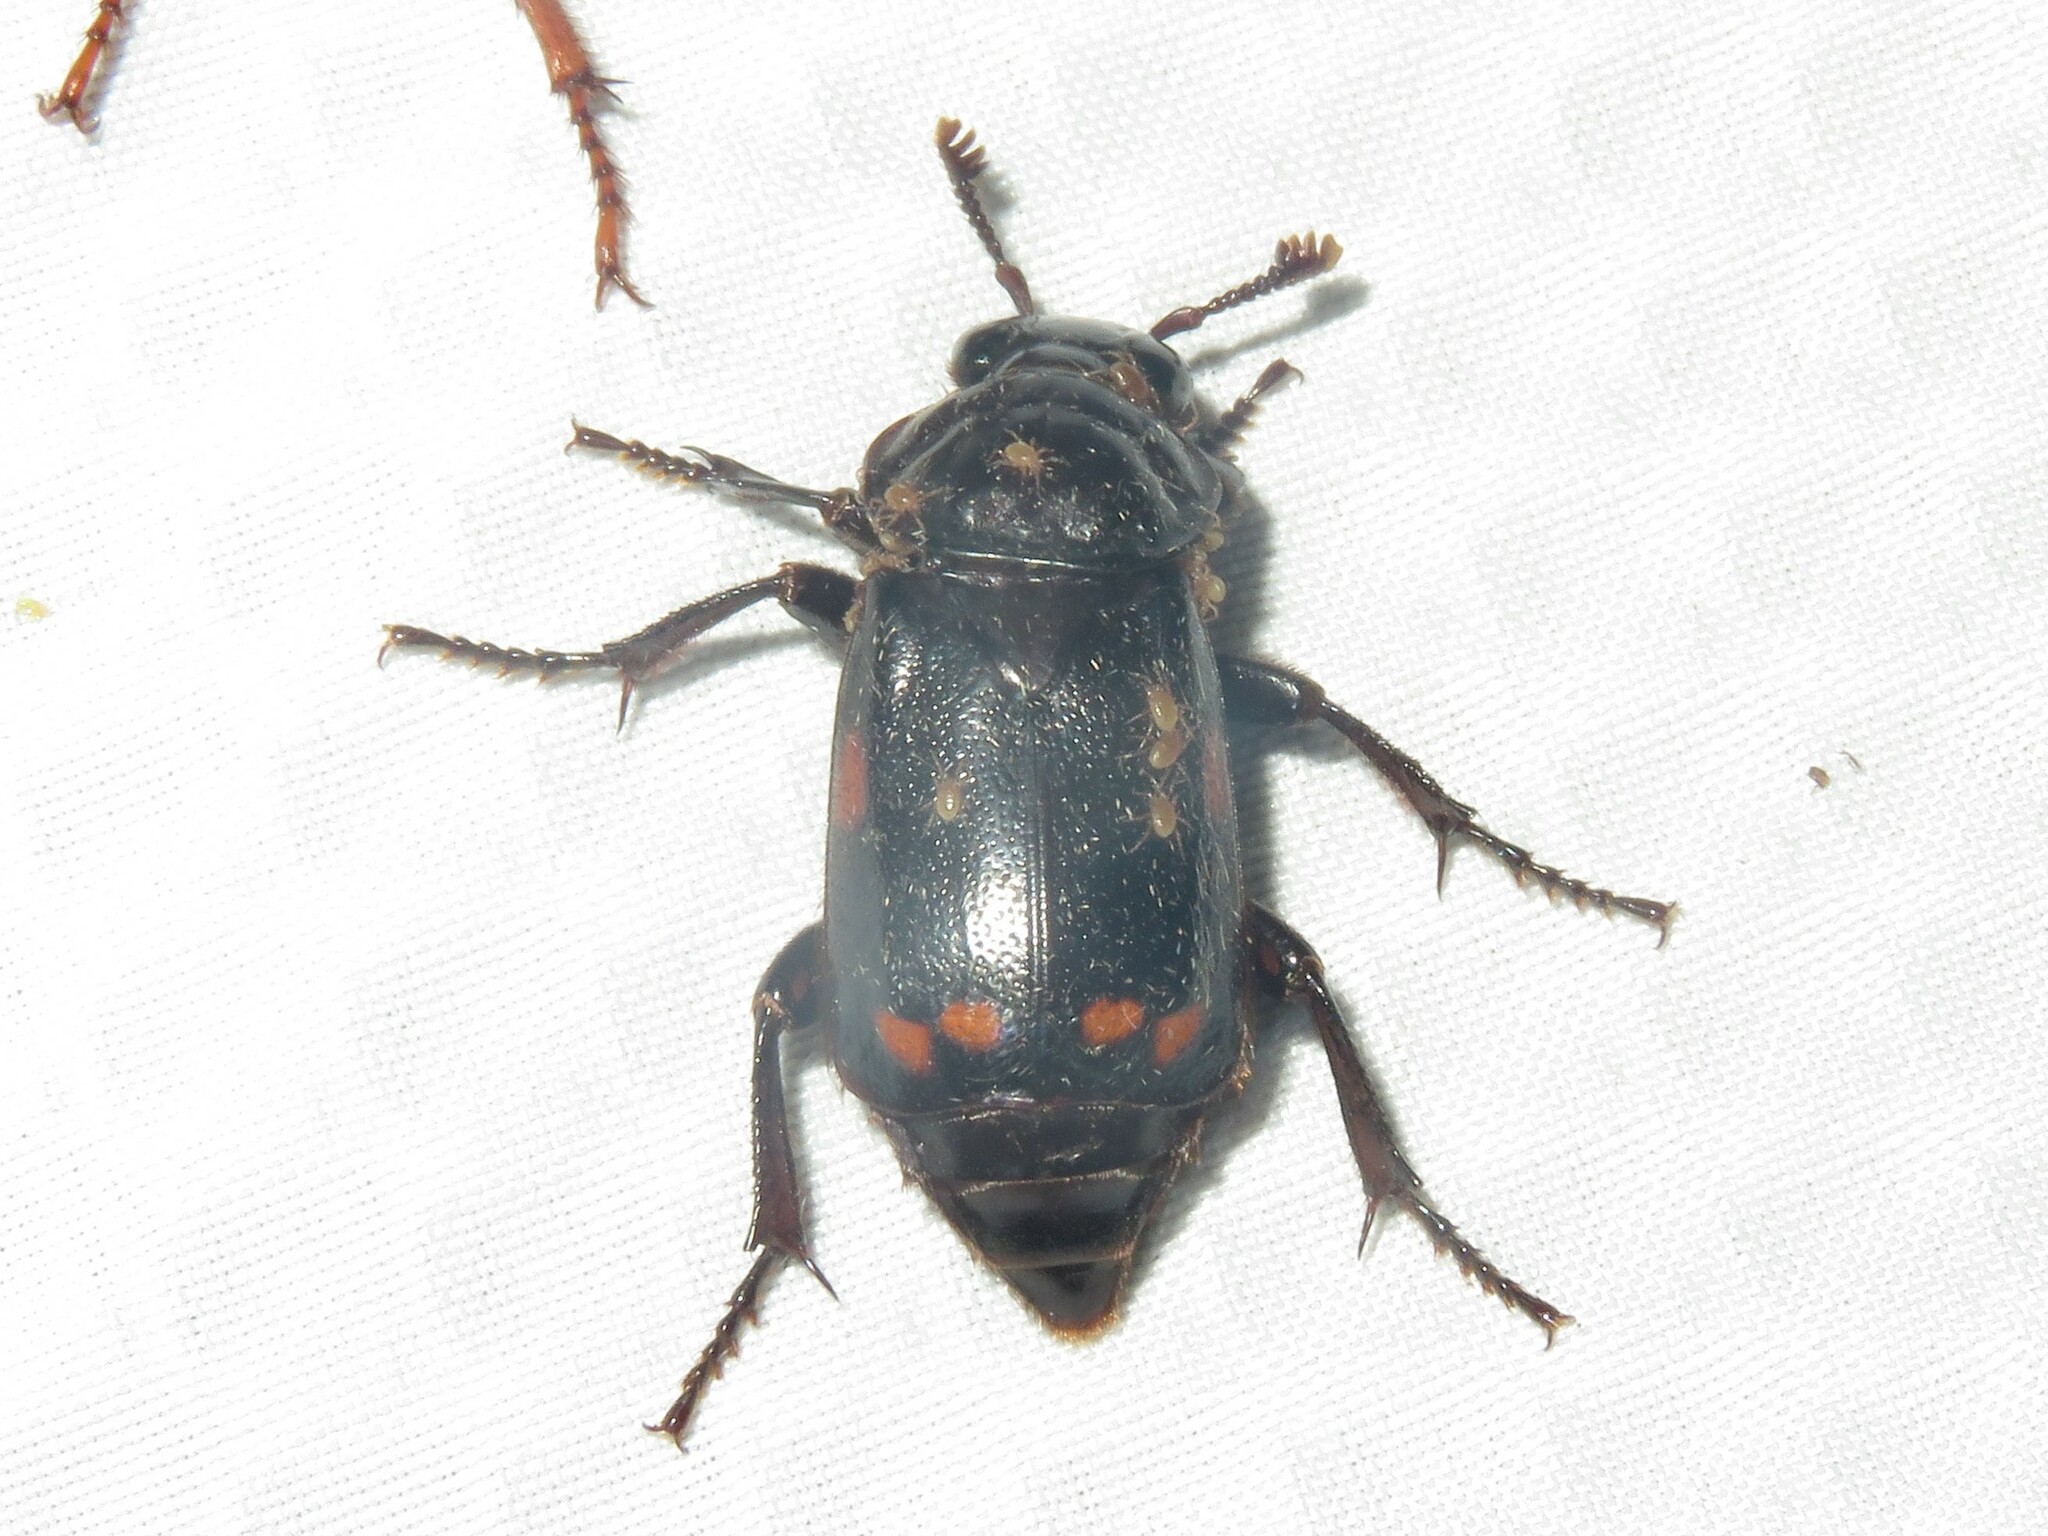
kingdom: Animalia
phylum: Arthropoda
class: Insecta
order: Coleoptera
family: Staphylinidae
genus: Nicrophorus
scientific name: Nicrophorus pustulatus
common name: Pustulated carrion beetle
